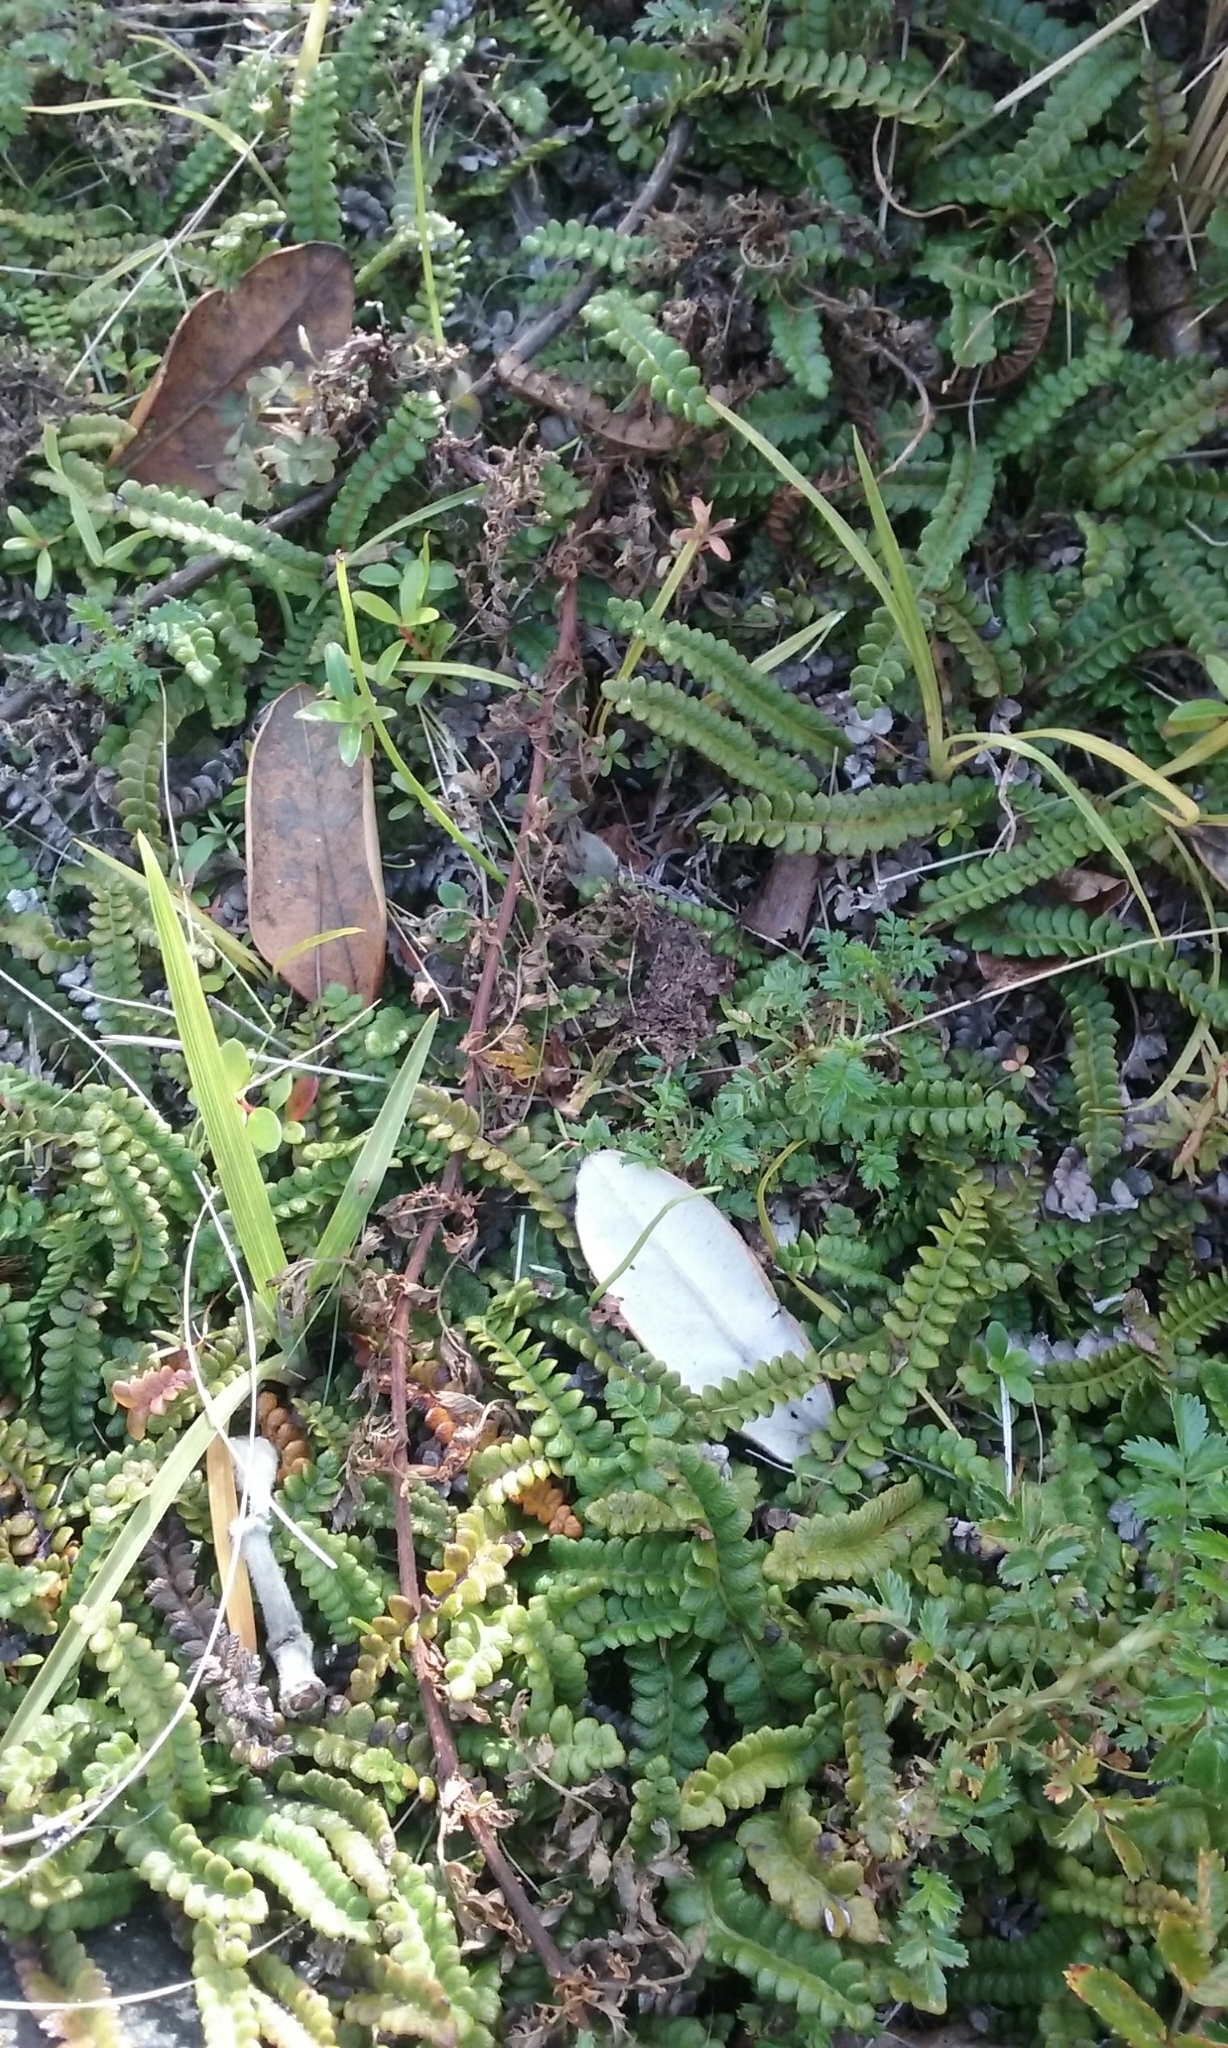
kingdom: Plantae
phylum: Tracheophyta
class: Liliopsida
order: Asparagales
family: Asparagaceae
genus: Cordyline
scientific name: Cordyline australis
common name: Cabbage-palm
